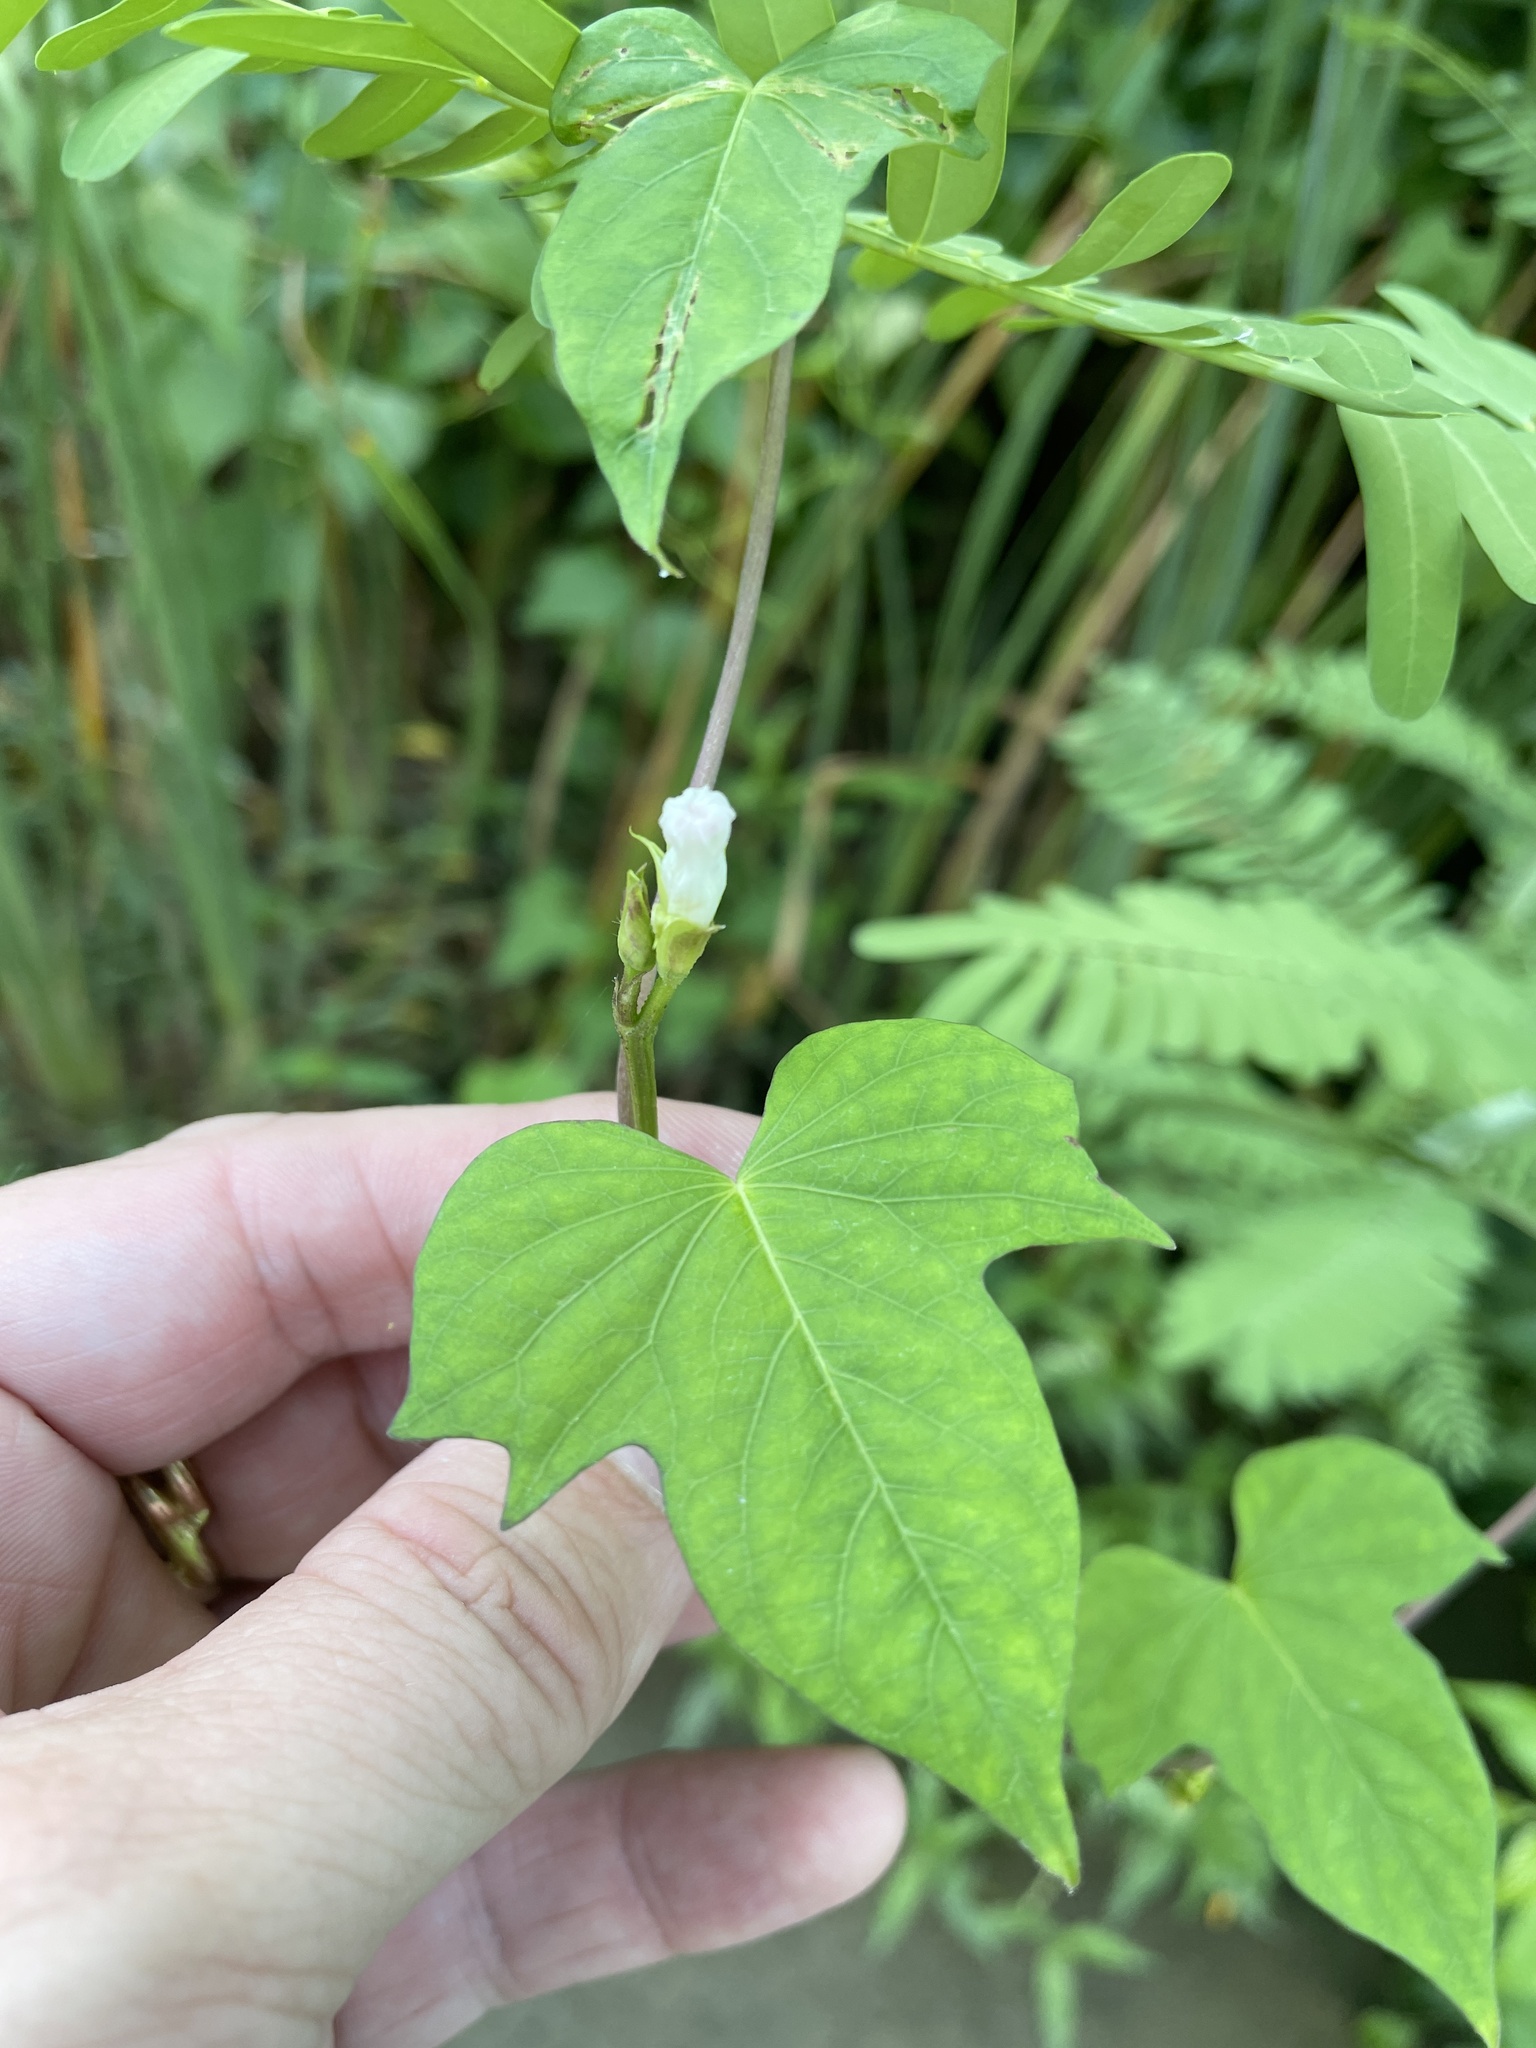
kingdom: Plantae
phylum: Tracheophyta
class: Magnoliopsida
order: Solanales
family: Convolvulaceae
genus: Ipomoea
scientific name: Ipomoea lacunosa
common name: White morning-glory
